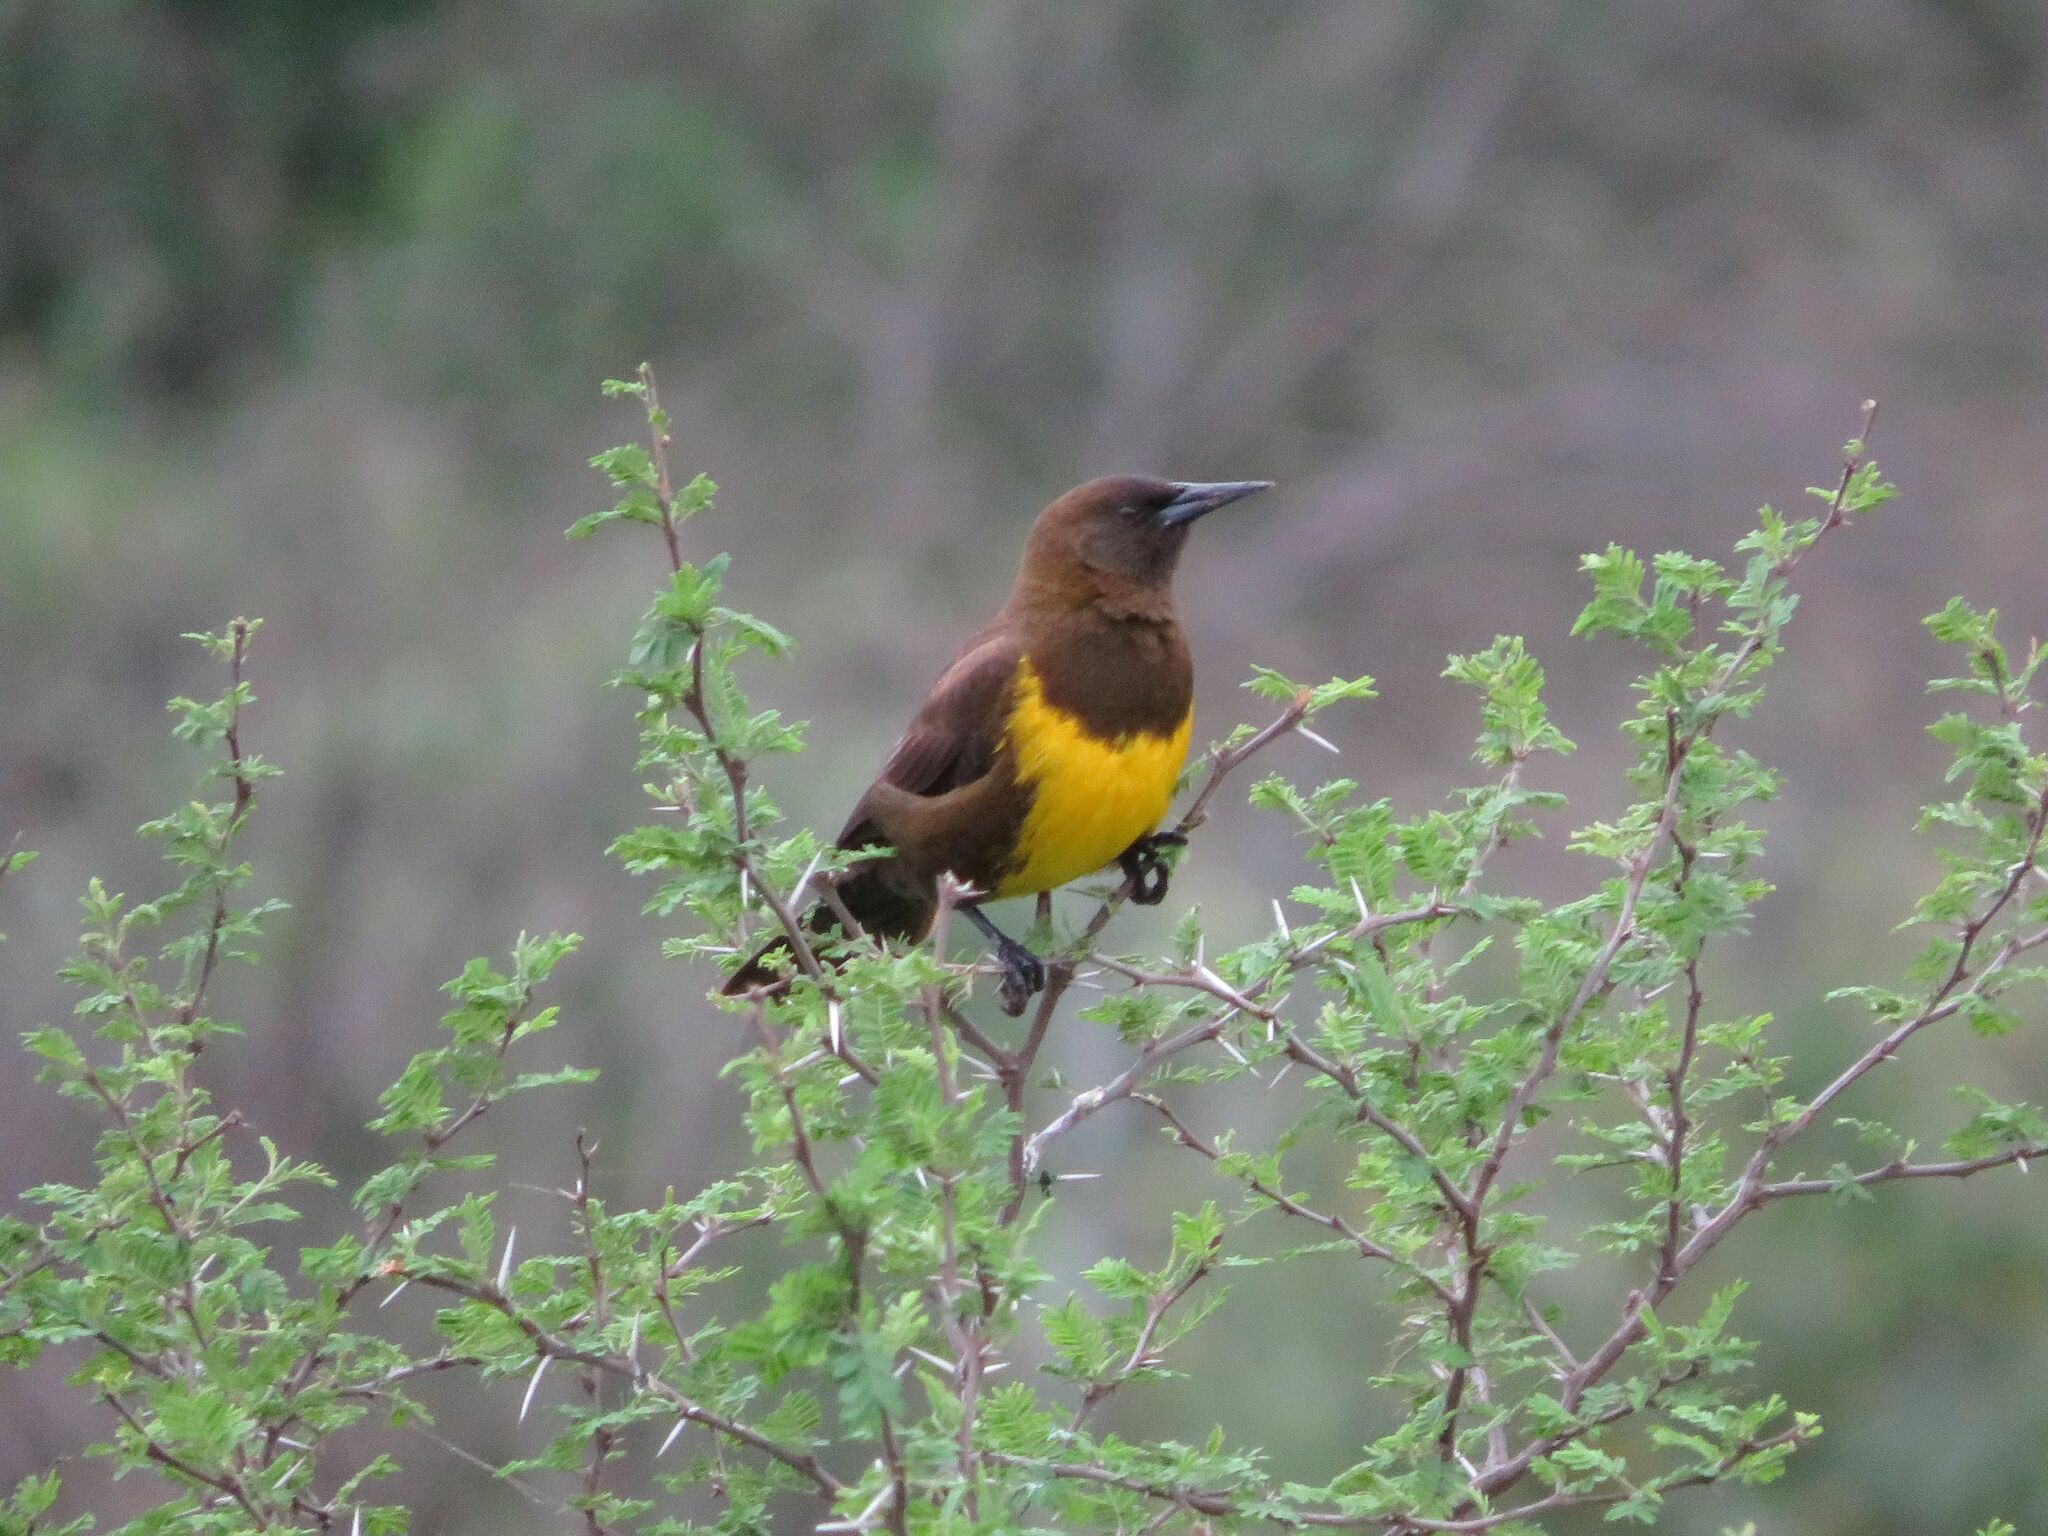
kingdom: Animalia
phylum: Chordata
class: Aves
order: Passeriformes
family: Icteridae
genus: Pseudoleistes
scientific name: Pseudoleistes virescens
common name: Brown-and-yellow marshbird
